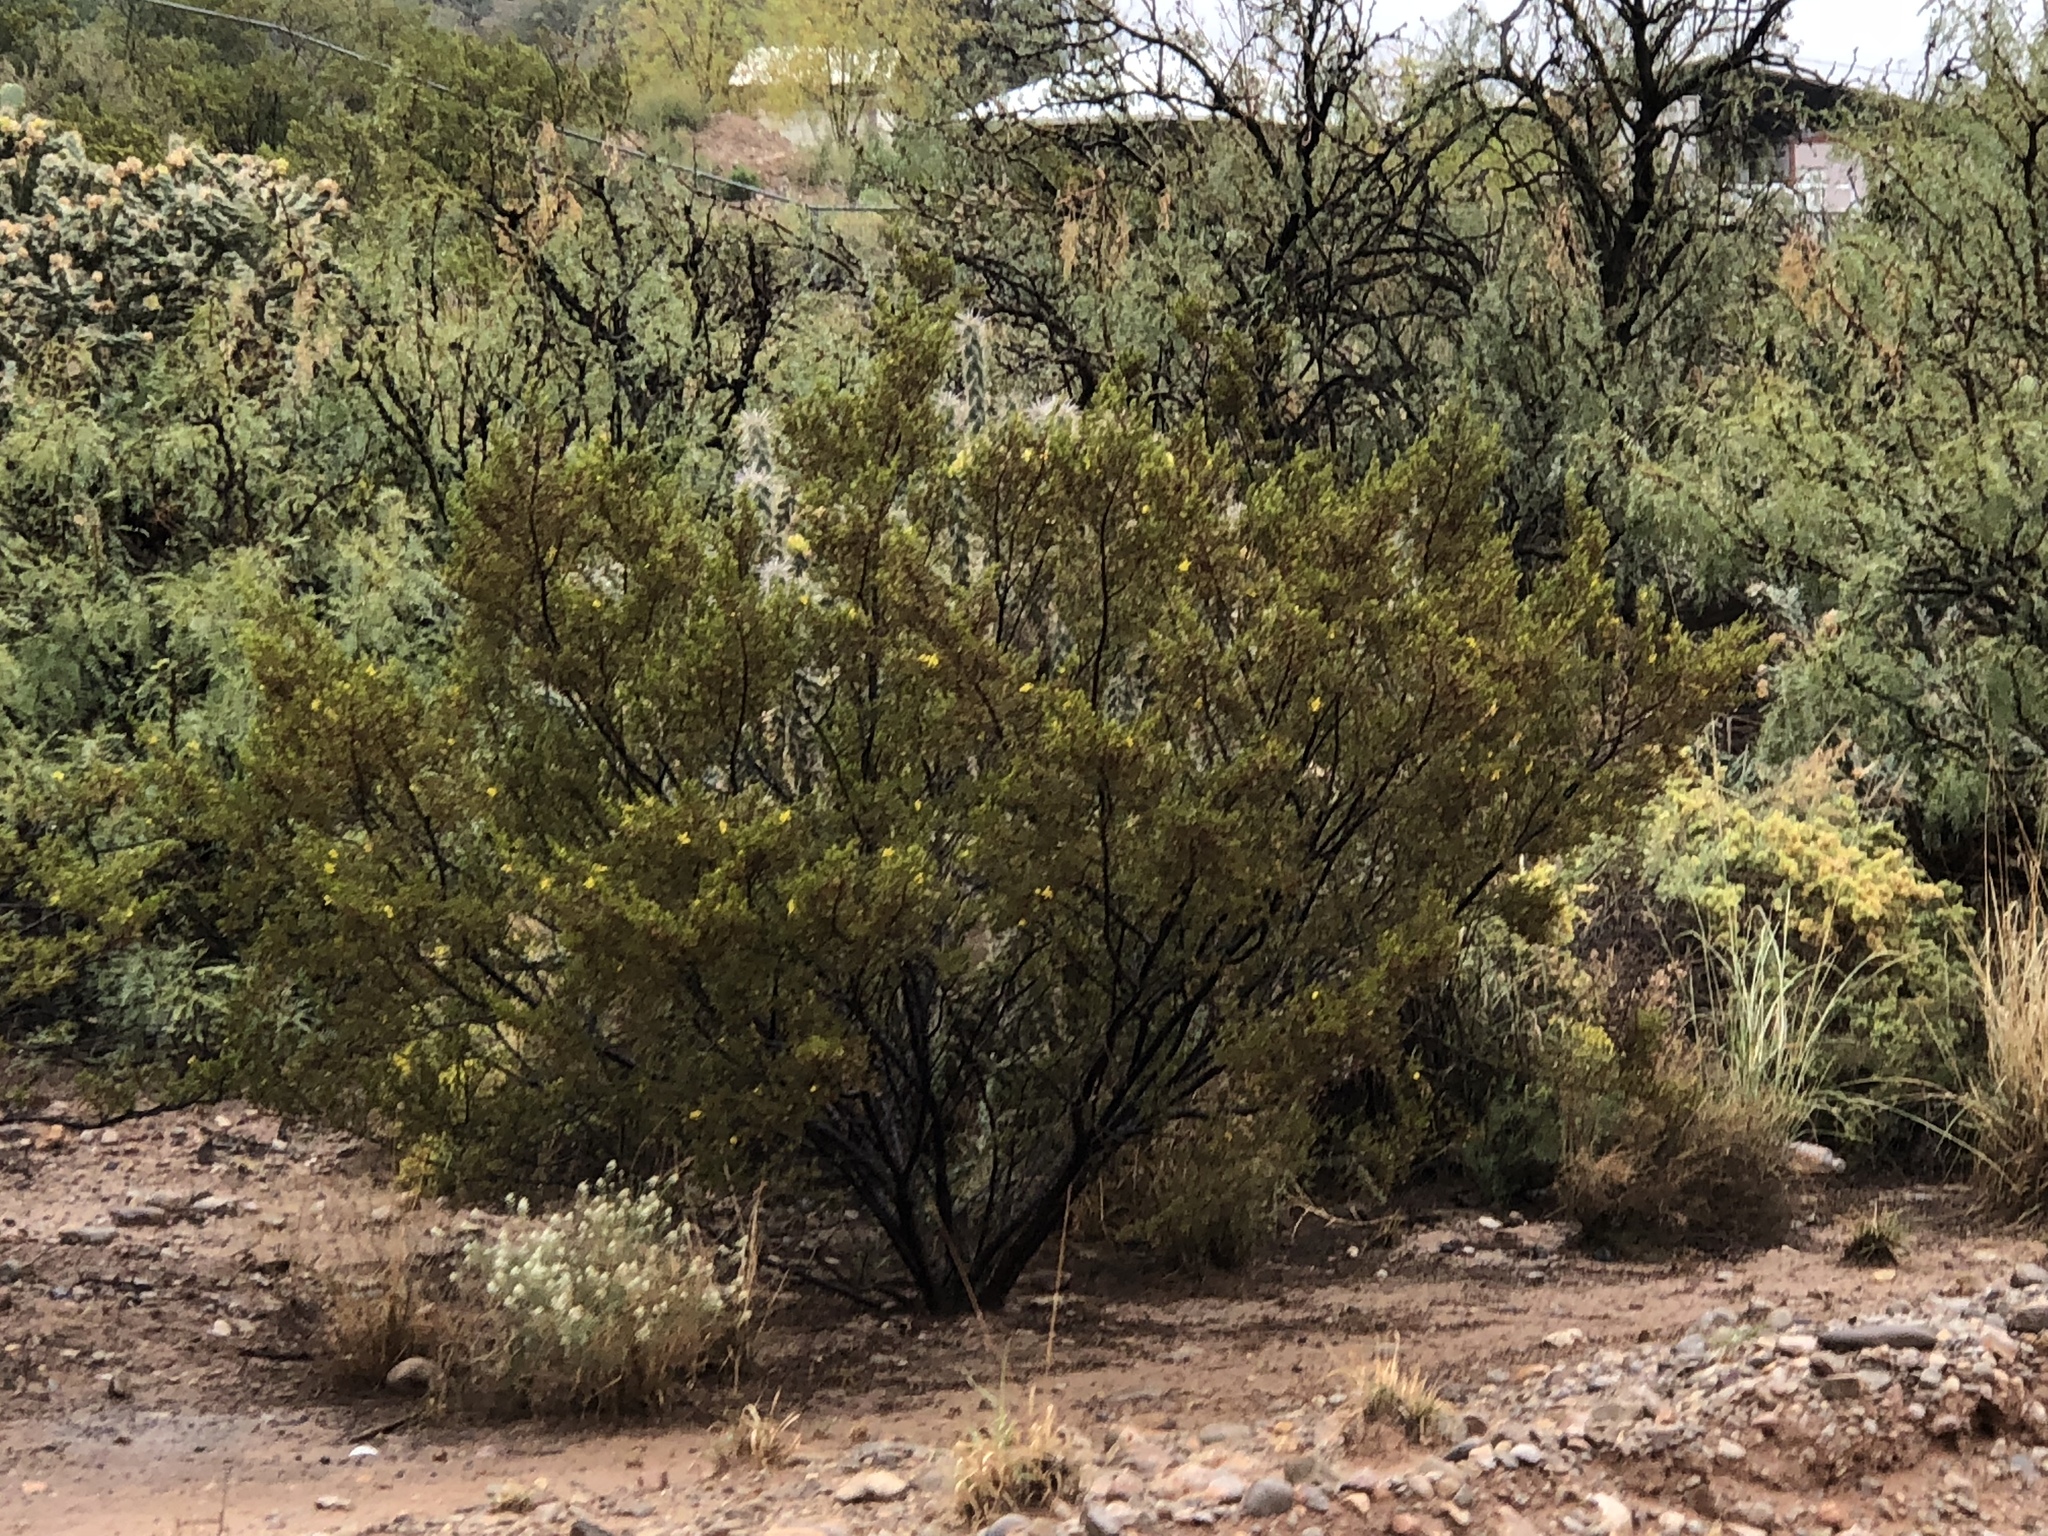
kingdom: Plantae
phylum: Tracheophyta
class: Magnoliopsida
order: Zygophyllales
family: Zygophyllaceae
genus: Larrea
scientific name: Larrea tridentata
